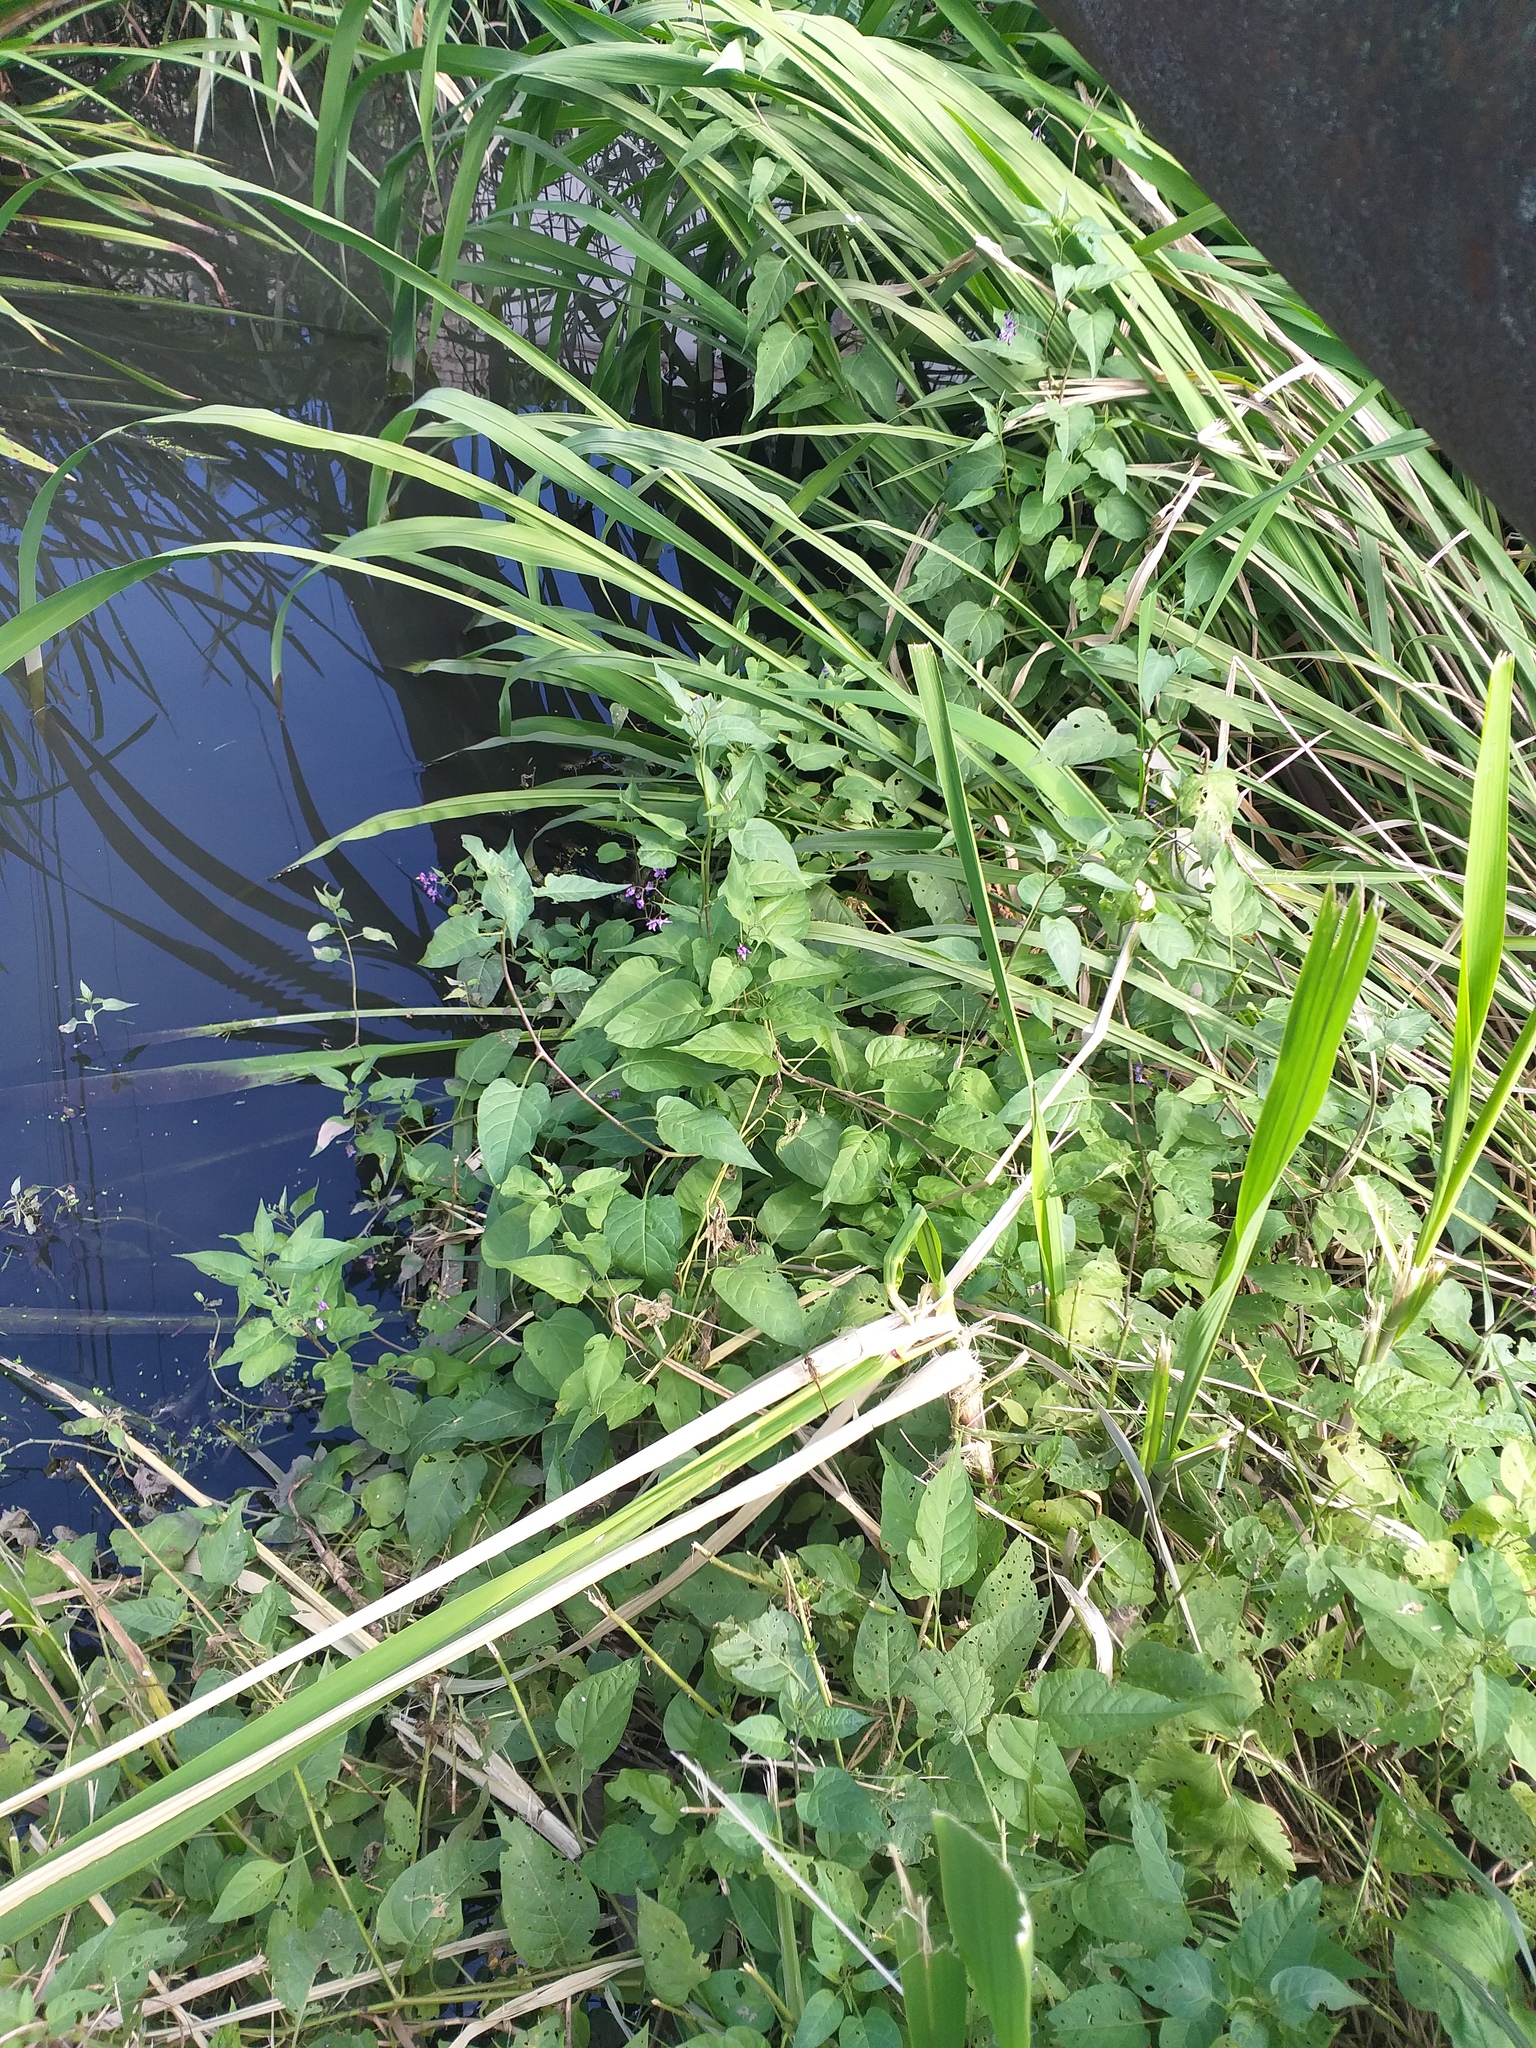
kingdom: Plantae
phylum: Tracheophyta
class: Magnoliopsida
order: Solanales
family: Solanaceae
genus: Solanum
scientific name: Solanum dulcamara
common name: Climbing nightshade
